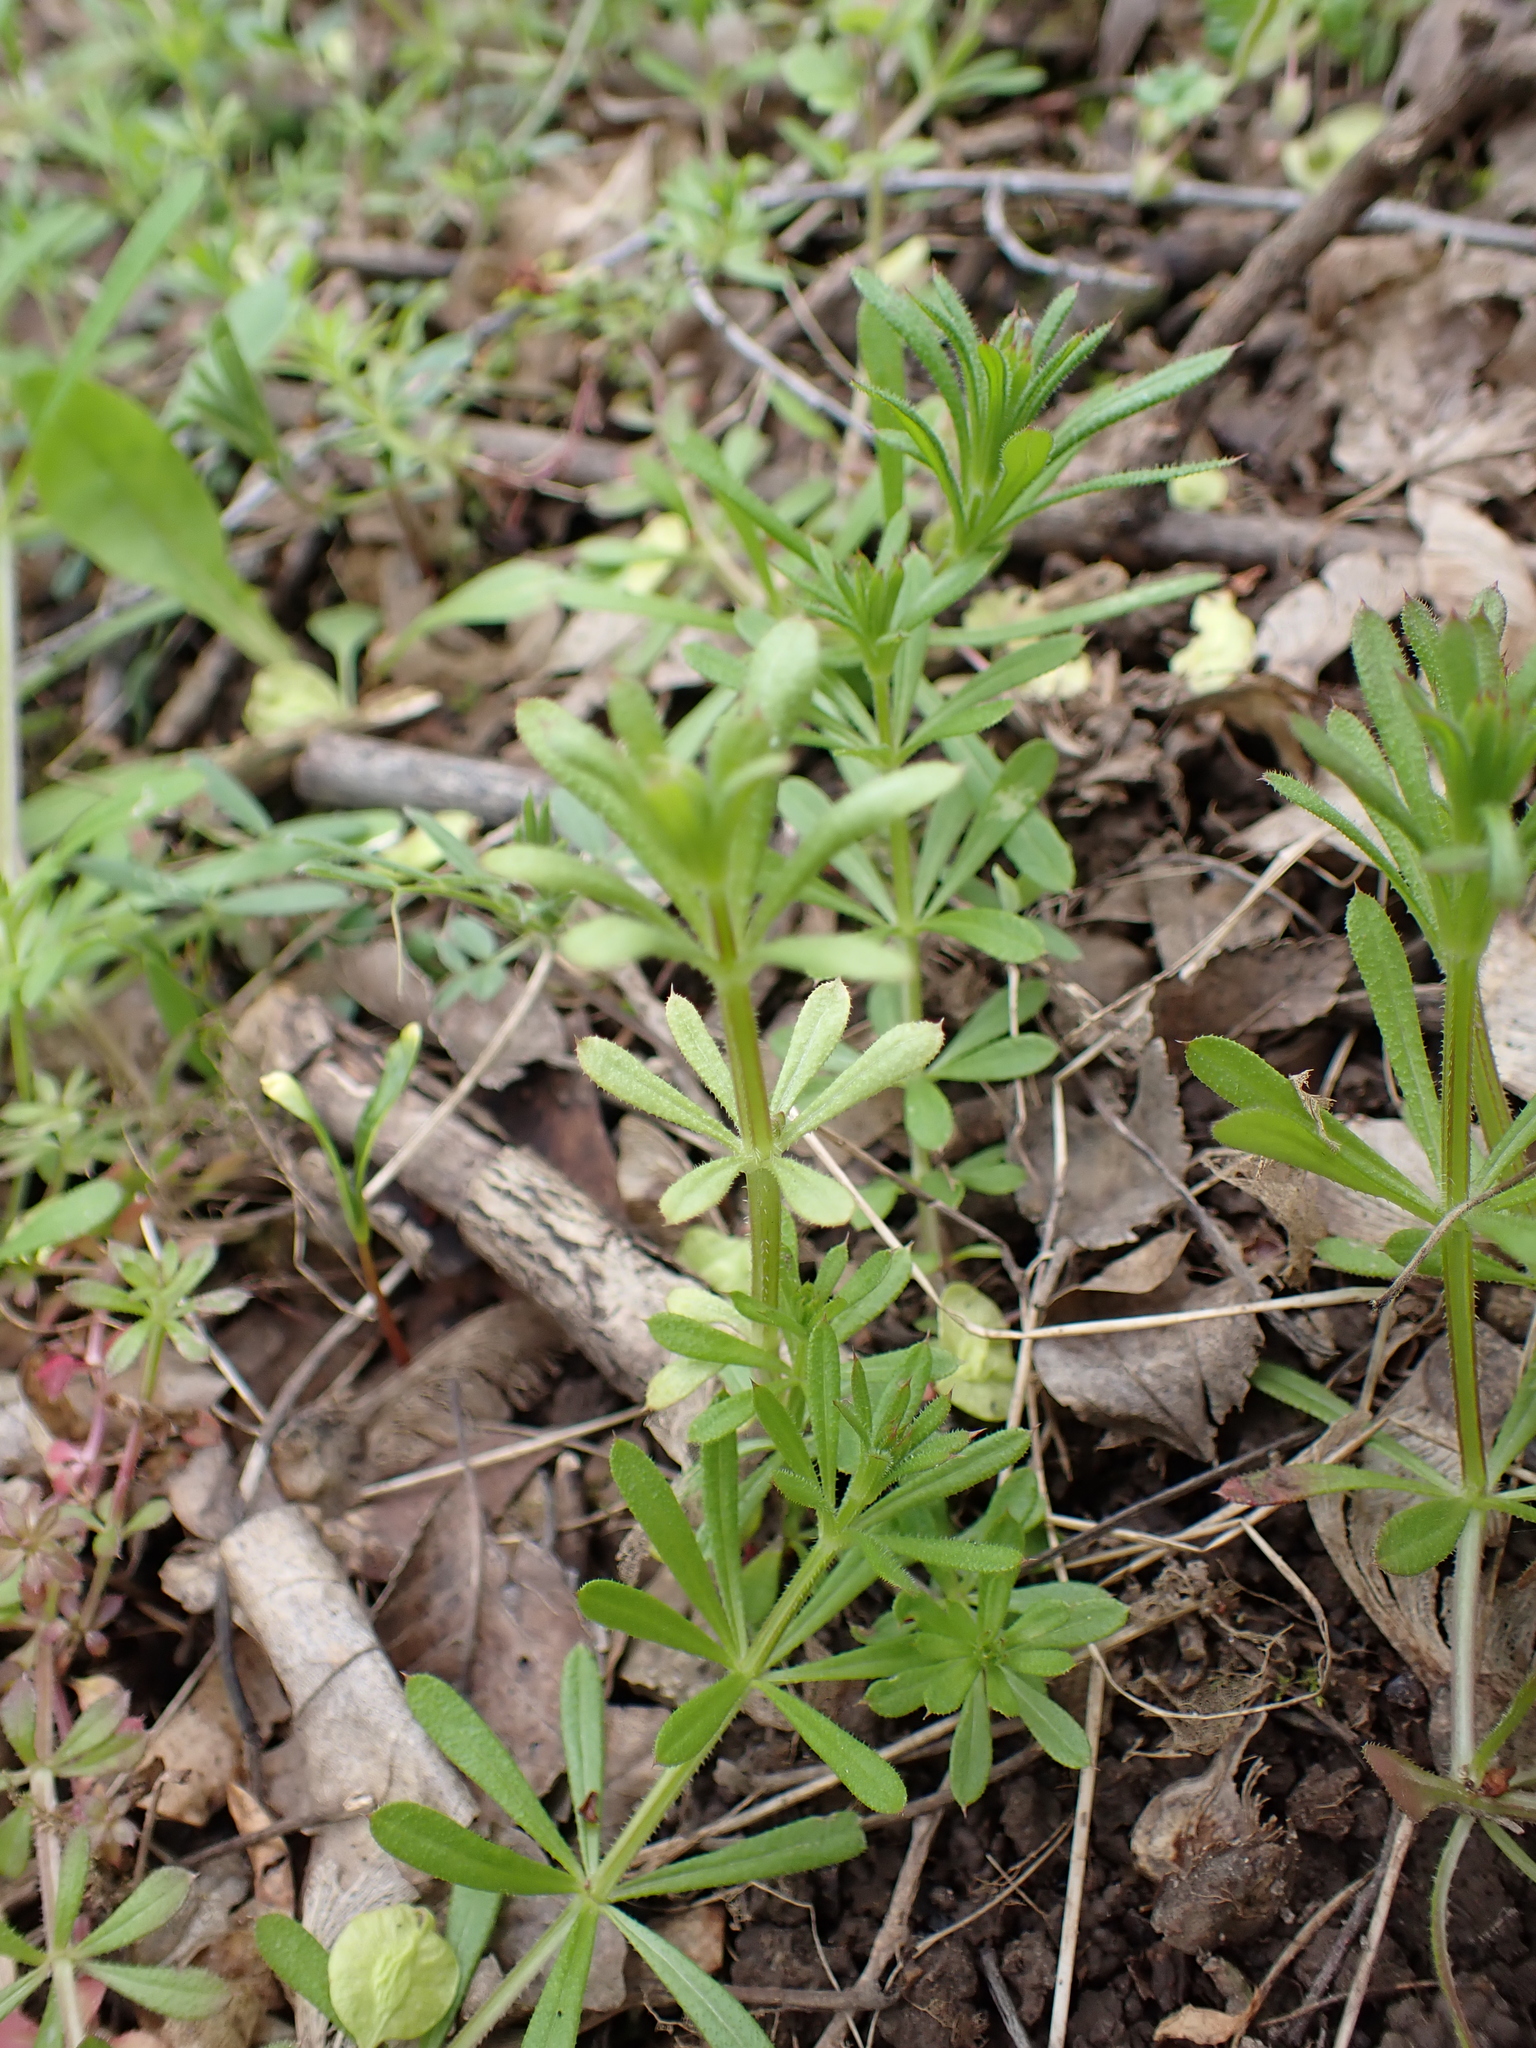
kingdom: Plantae
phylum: Tracheophyta
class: Magnoliopsida
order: Gentianales
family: Rubiaceae
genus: Galium
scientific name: Galium aparine
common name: Cleavers
